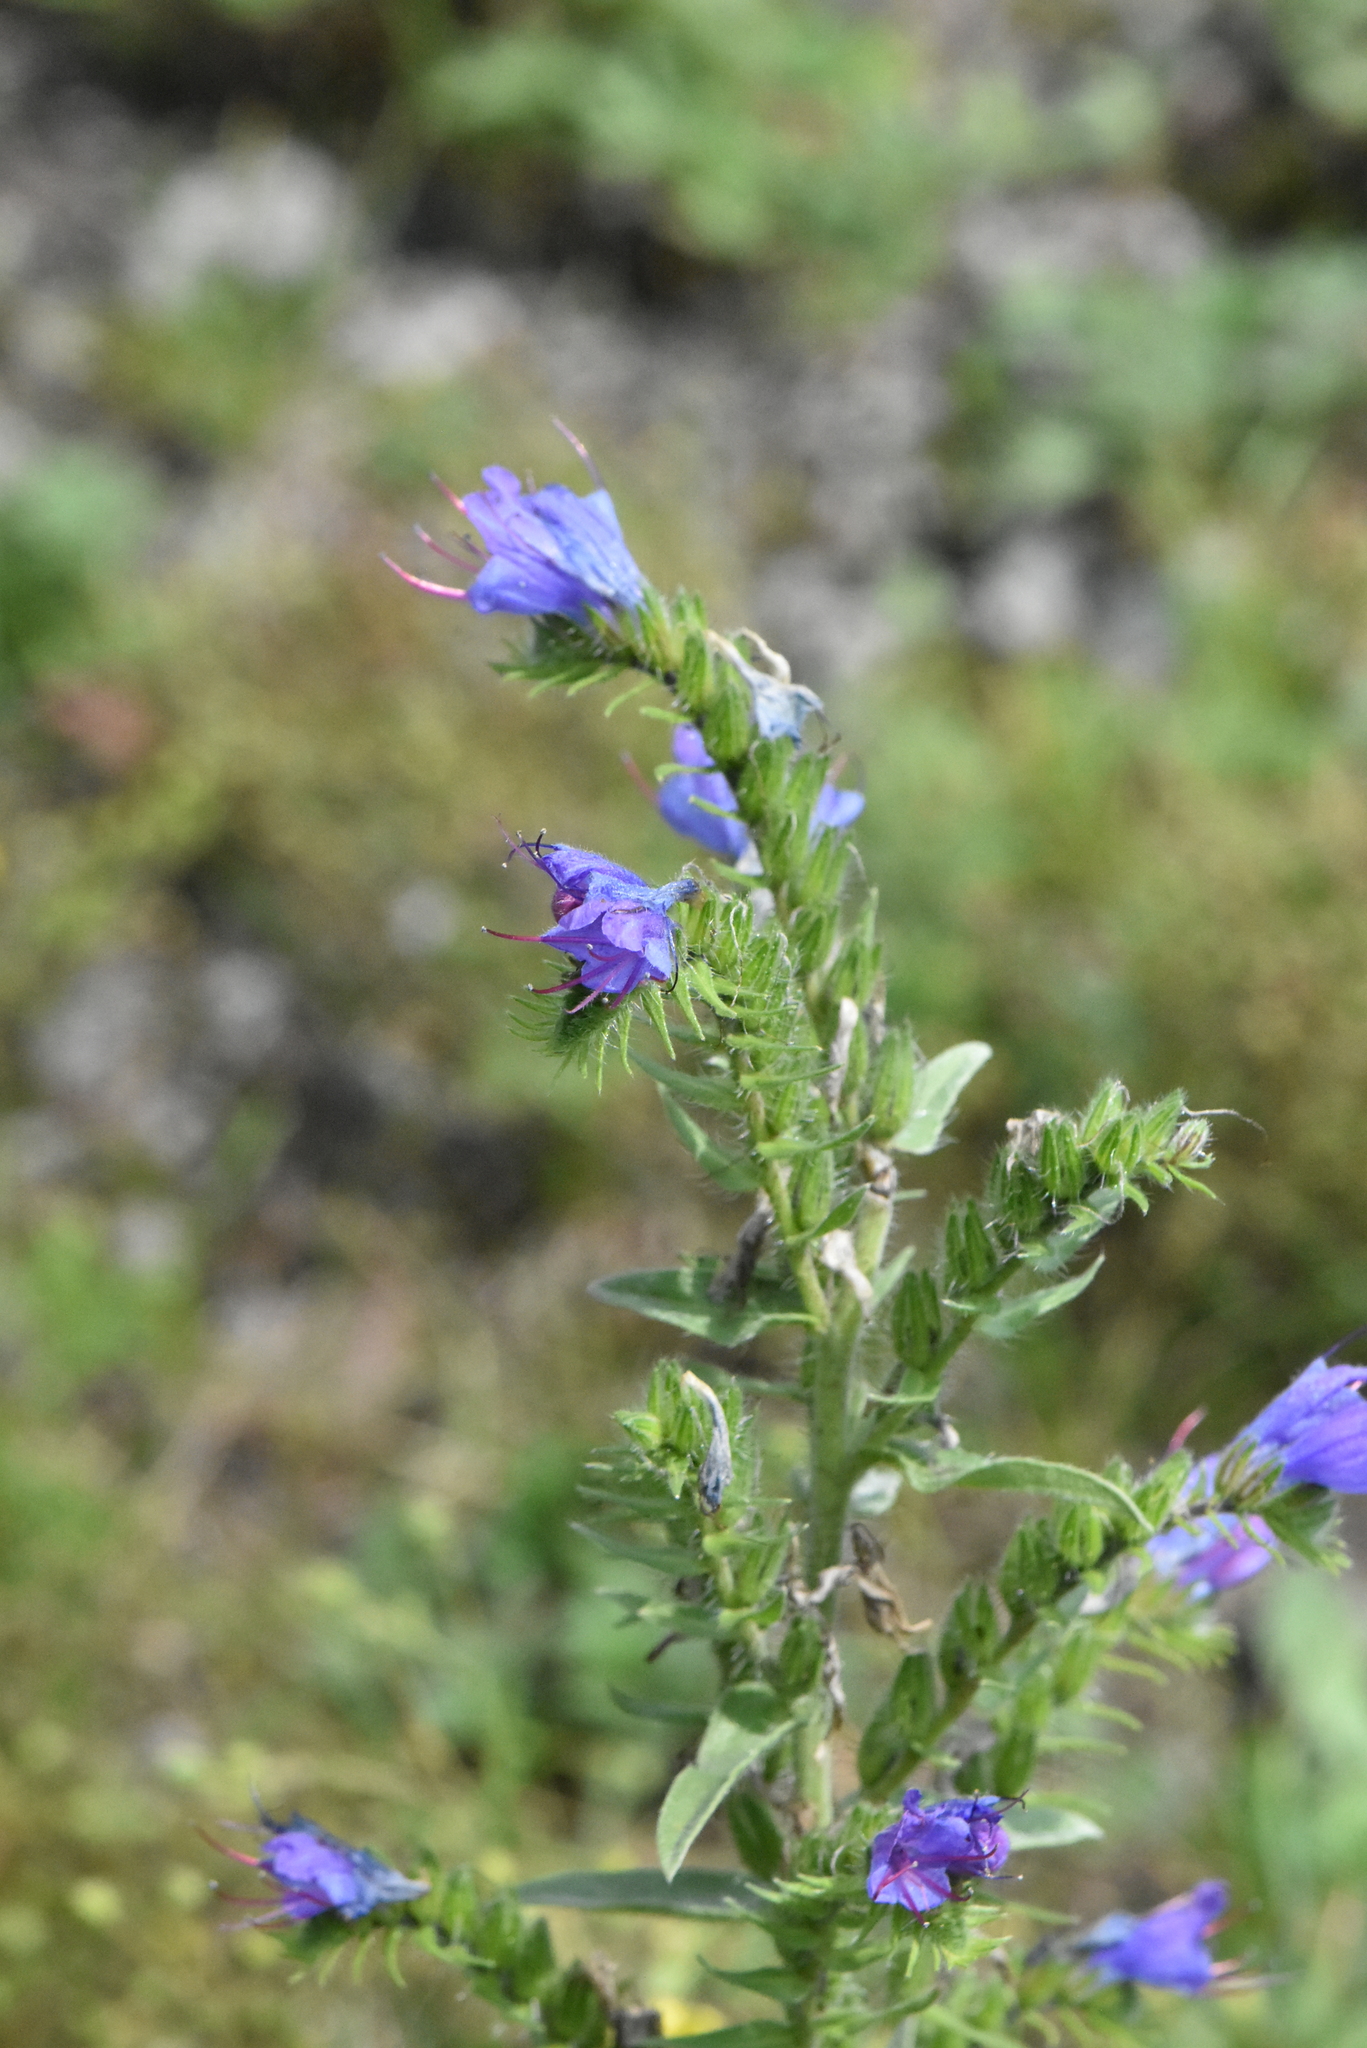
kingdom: Plantae
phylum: Tracheophyta
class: Magnoliopsida
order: Boraginales
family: Boraginaceae
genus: Echium
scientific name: Echium vulgare
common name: Common viper's bugloss
